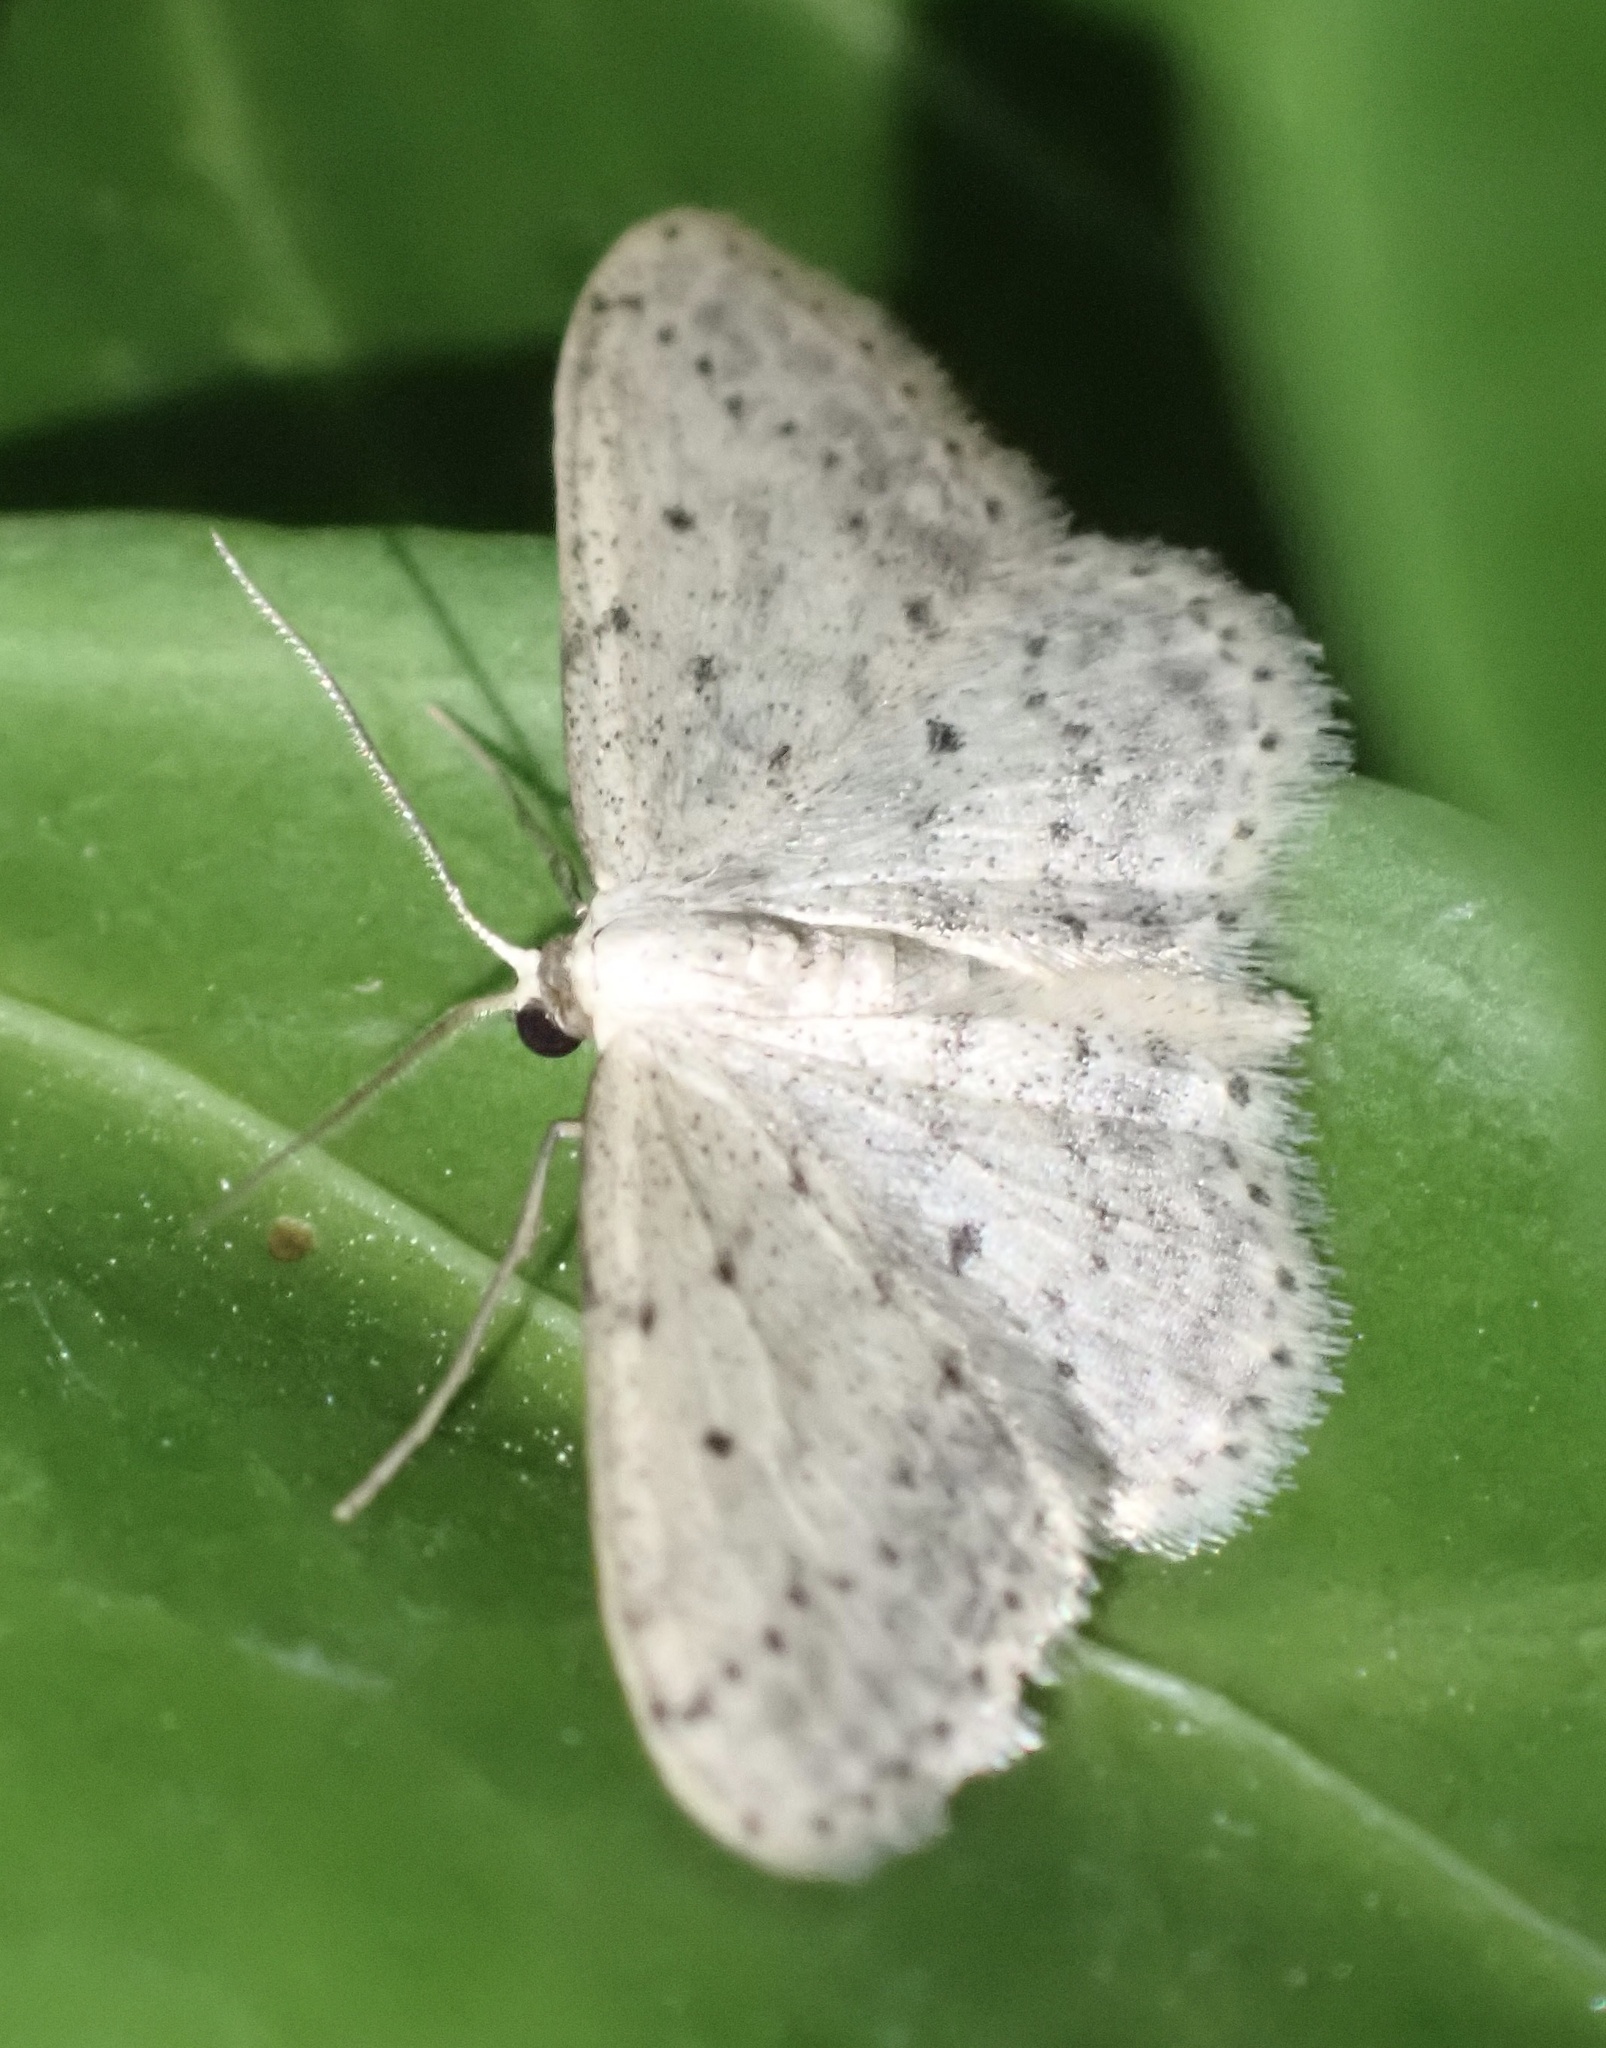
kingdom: Animalia
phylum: Arthropoda
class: Insecta
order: Lepidoptera
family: Geometridae
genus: Idaea
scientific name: Idaea seriata
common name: Small dusty wave
